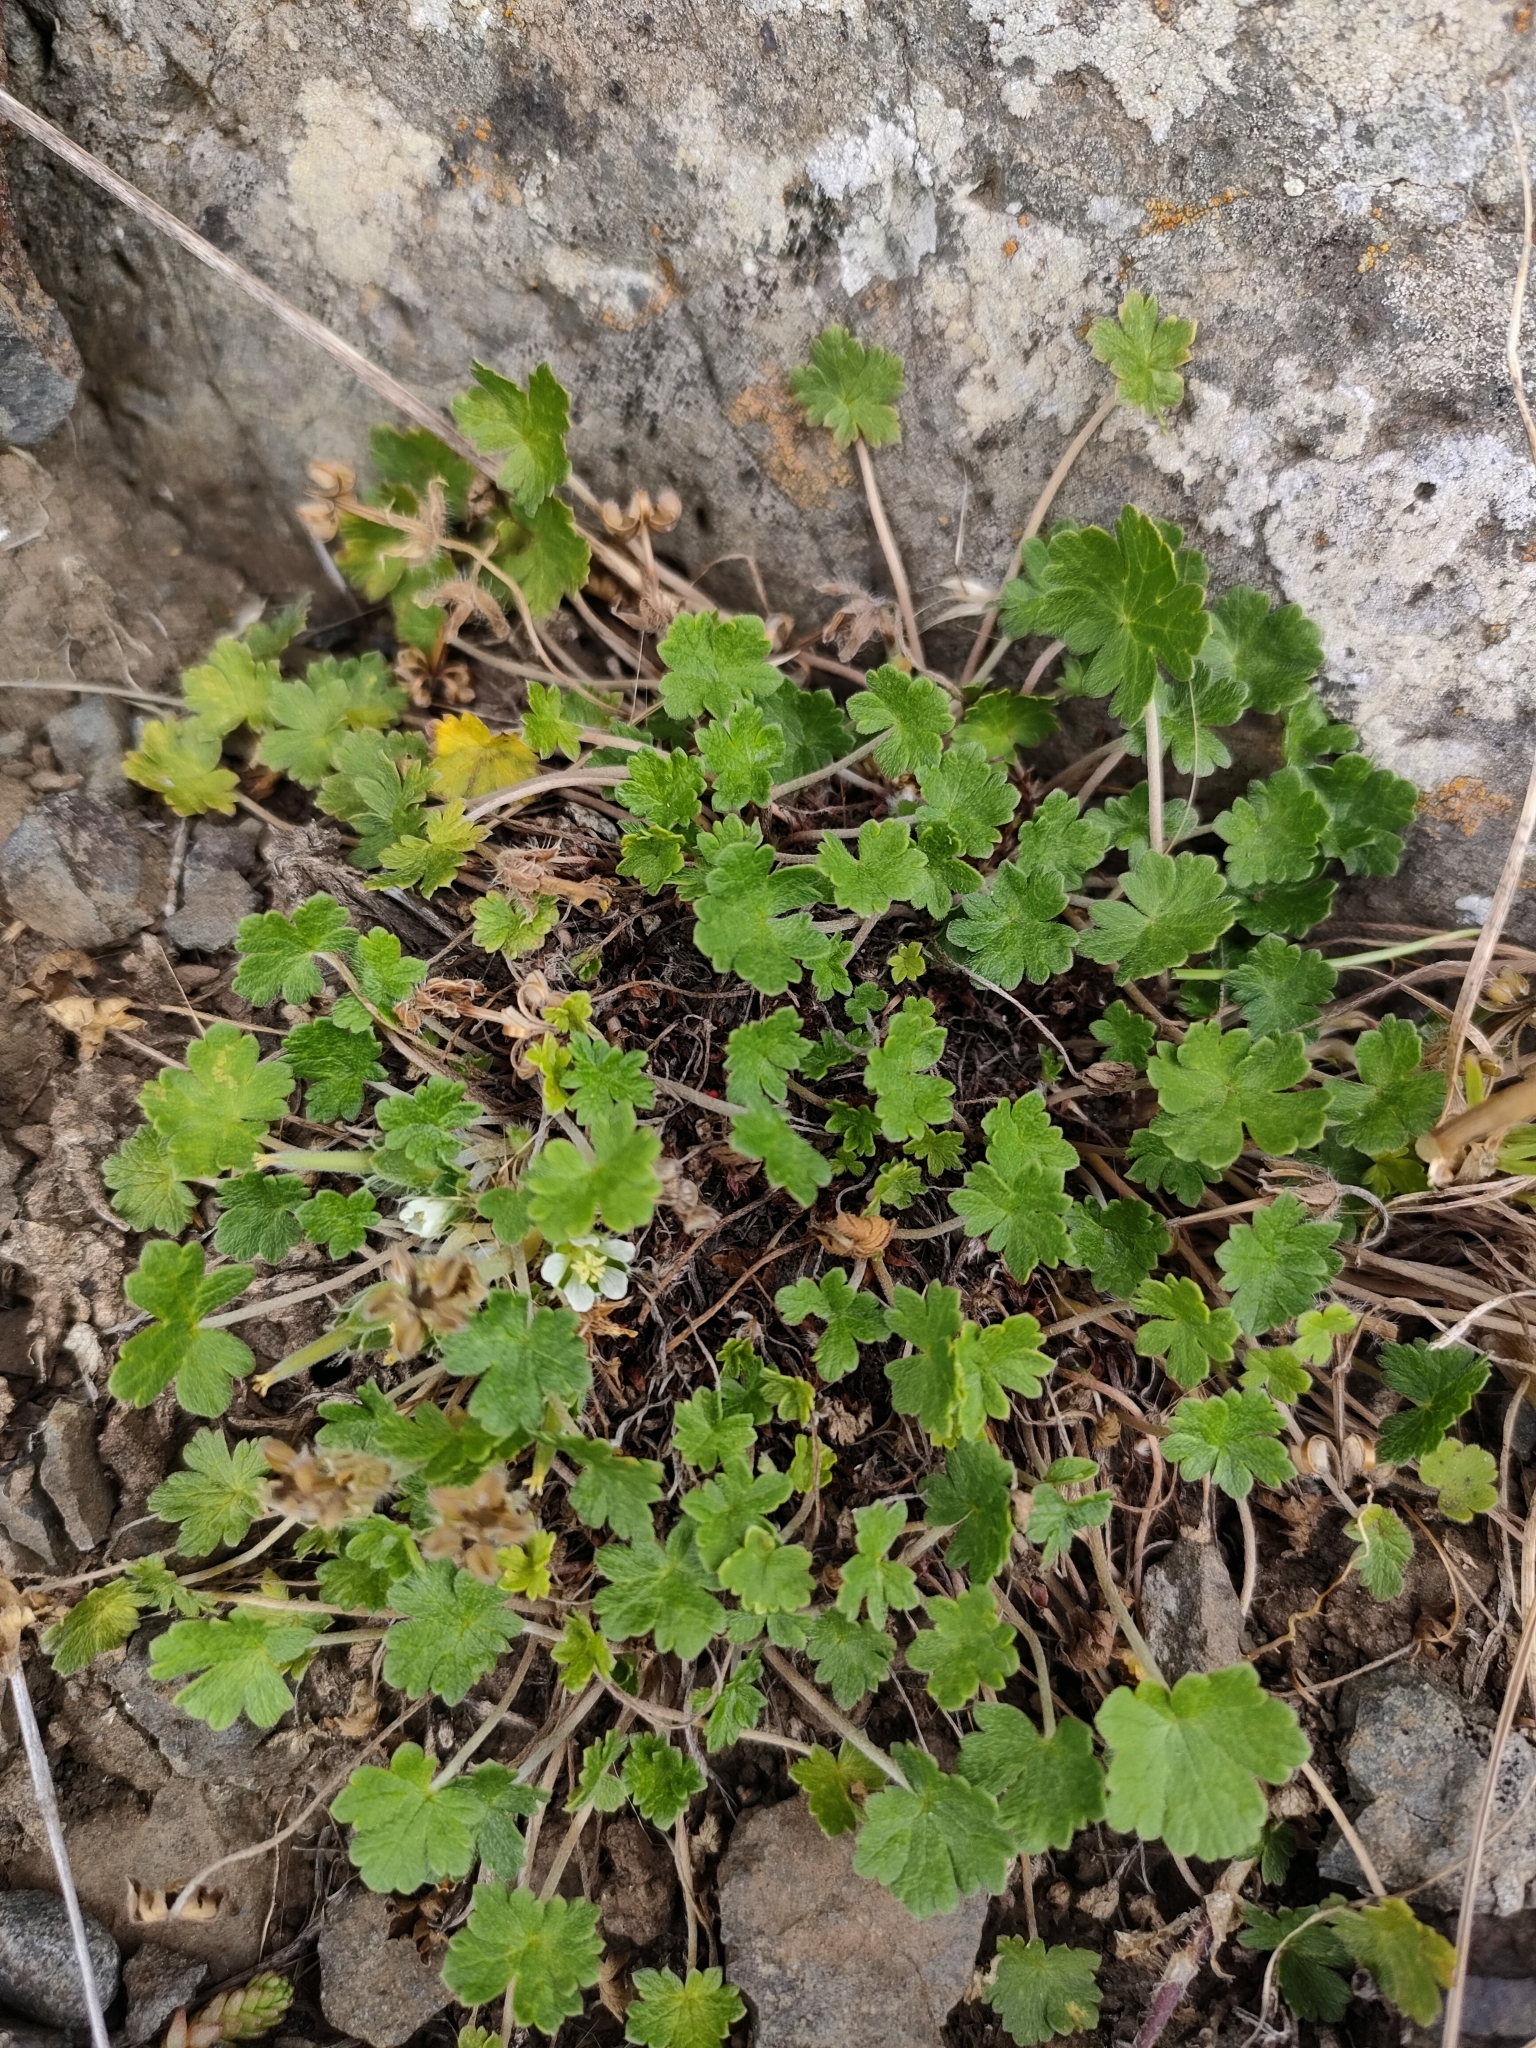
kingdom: Plantae
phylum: Tracheophyta
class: Magnoliopsida
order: Geraniales
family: Geraniaceae
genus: Geranium
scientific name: Geranium brevicaule
